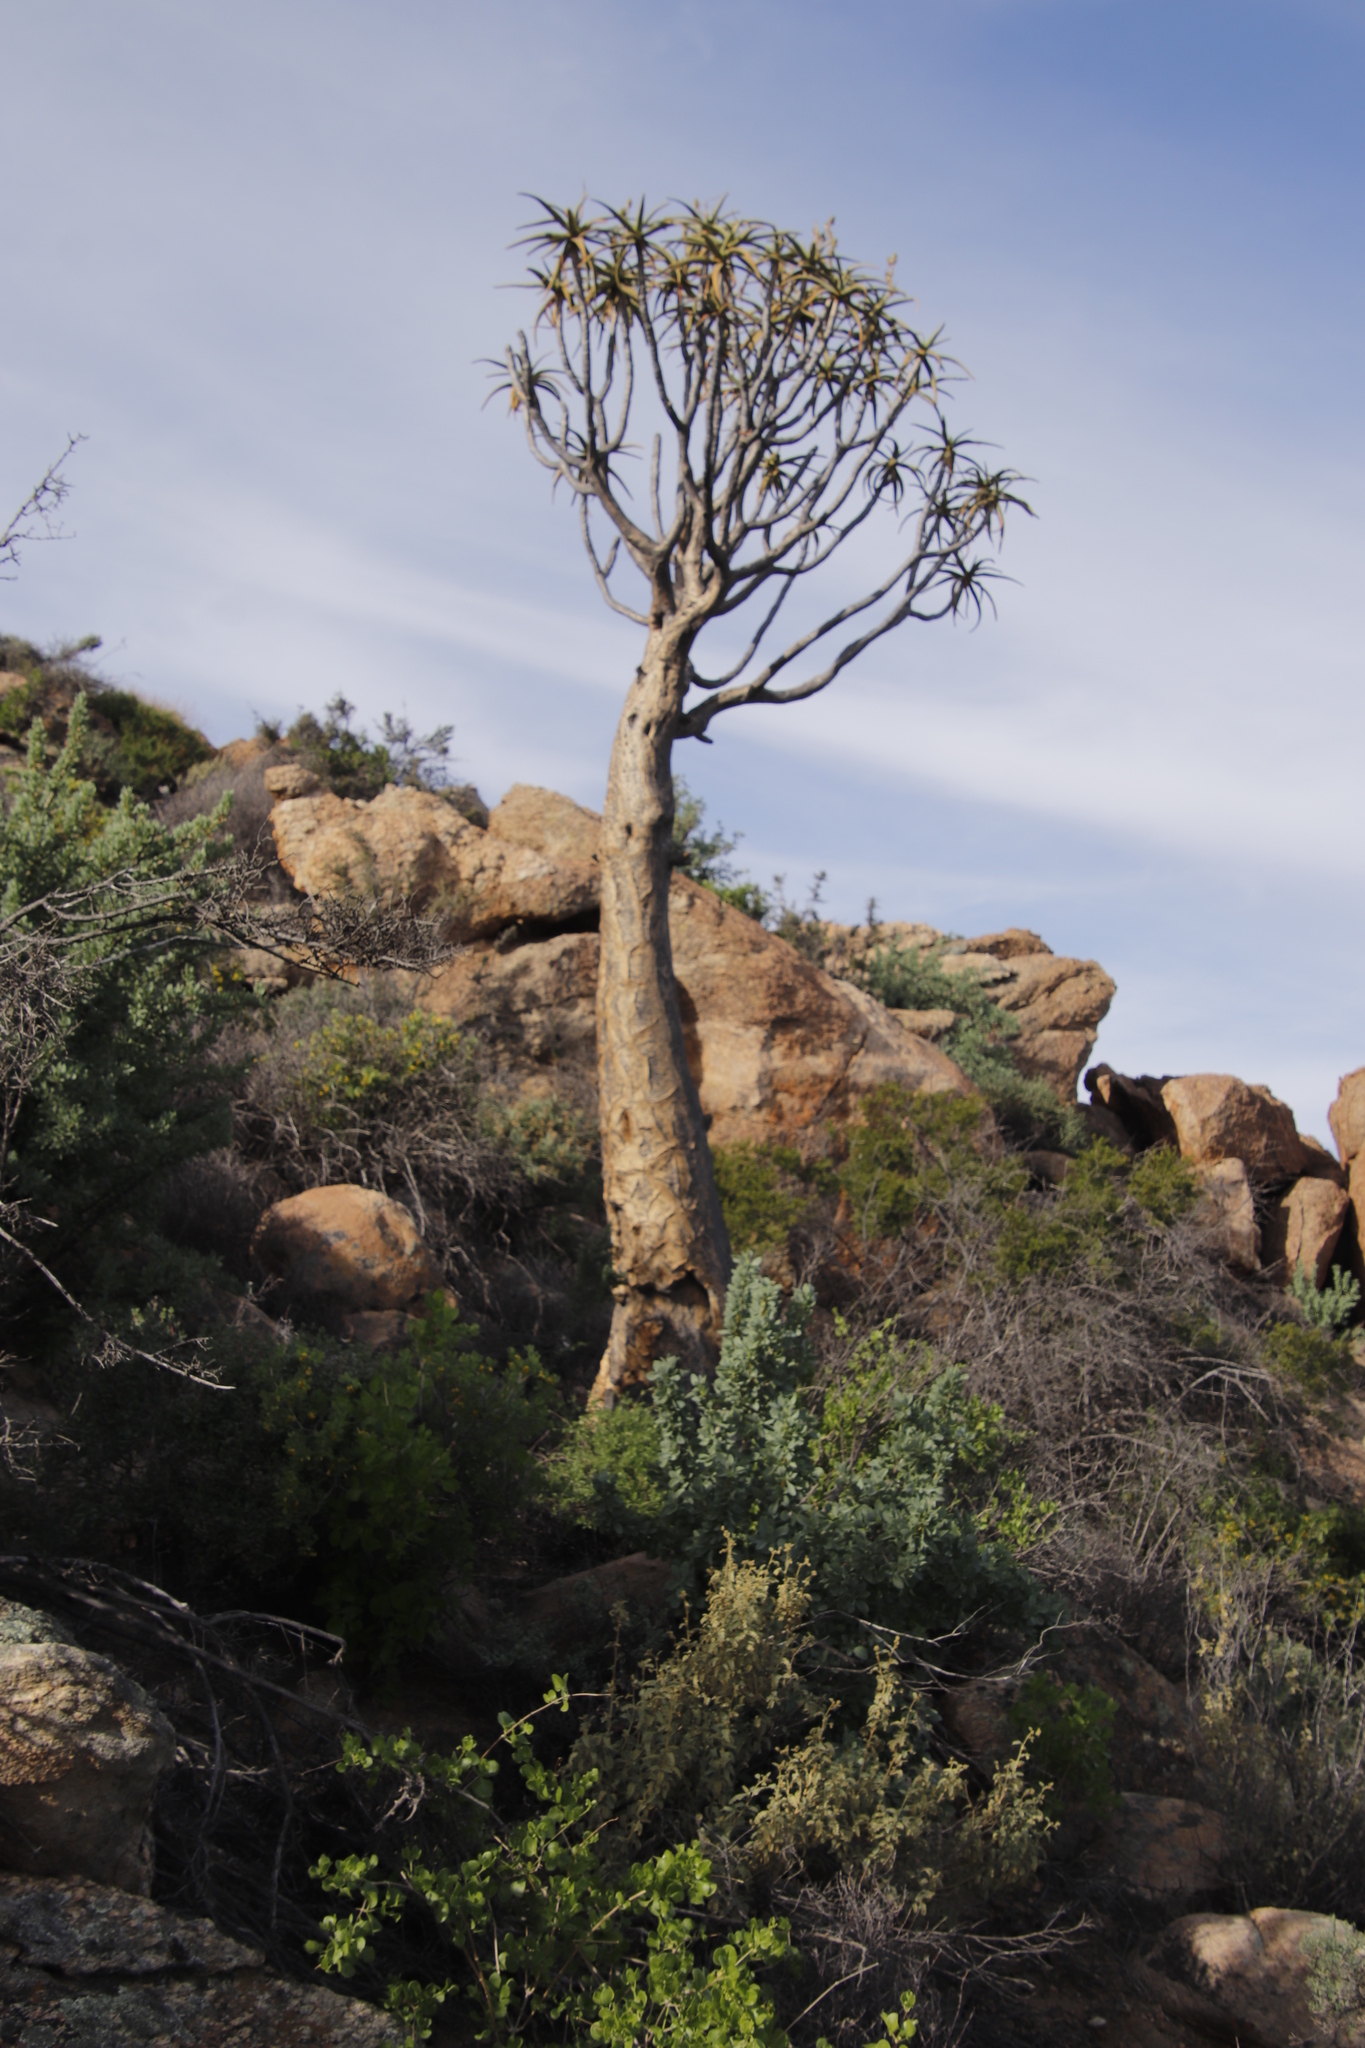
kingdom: Plantae
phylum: Tracheophyta
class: Liliopsida
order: Asparagales
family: Asphodelaceae
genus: Aloidendron
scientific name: Aloidendron dichotomum
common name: Quiver tree
